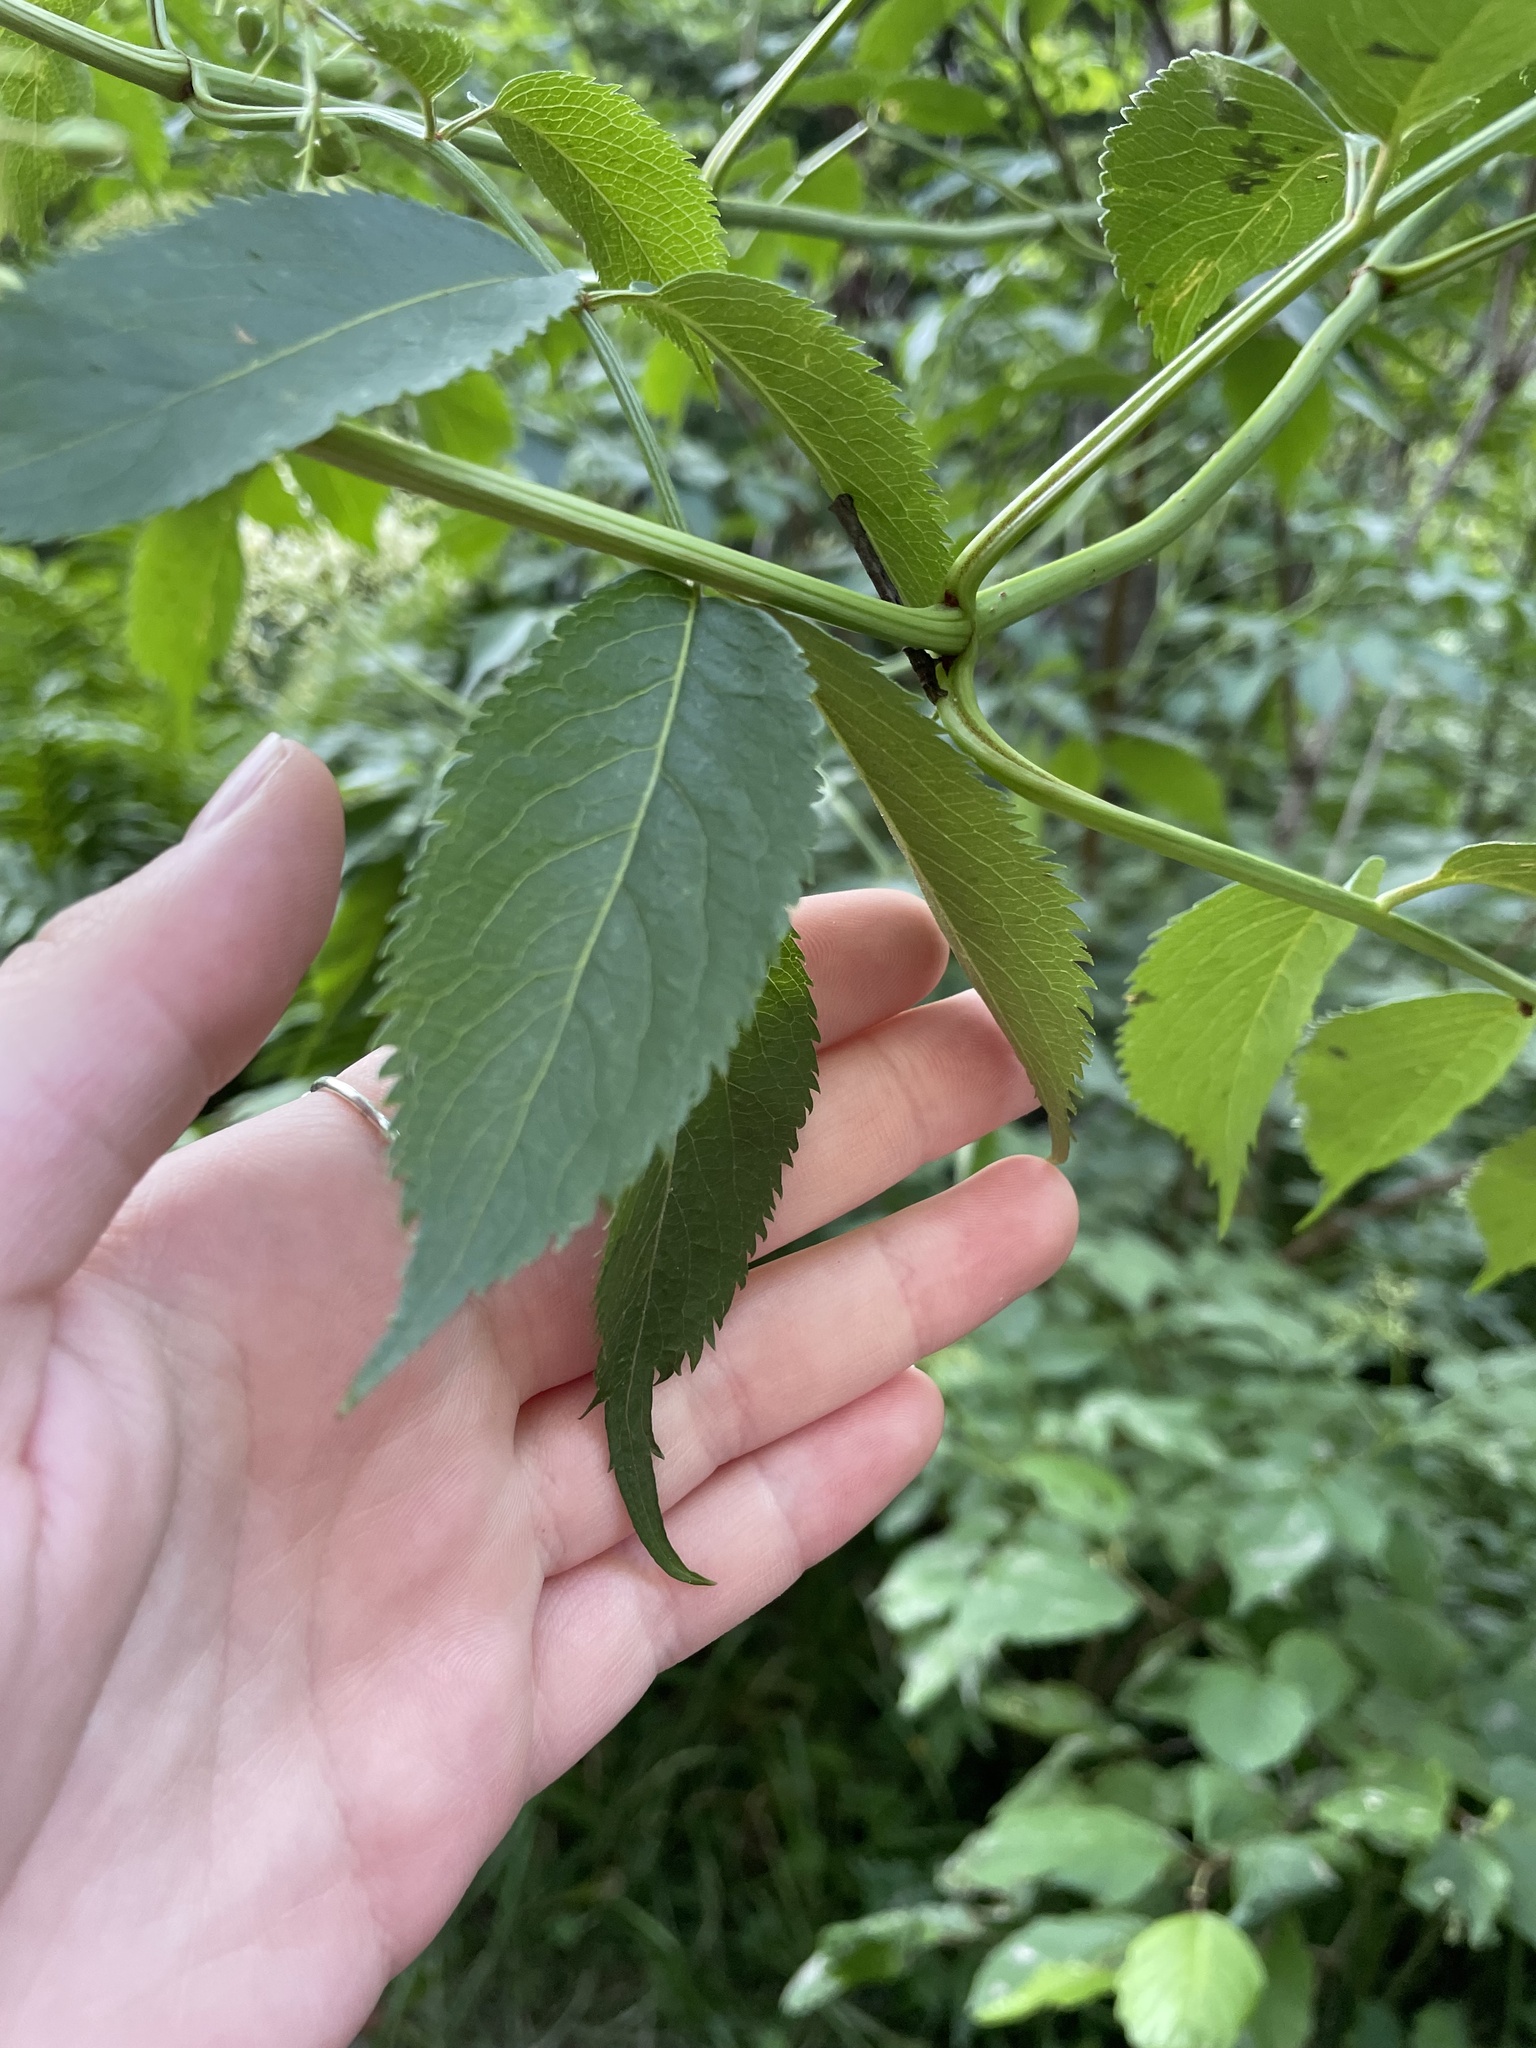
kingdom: Plantae
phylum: Tracheophyta
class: Magnoliopsida
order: Dipsacales
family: Viburnaceae
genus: Sambucus
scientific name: Sambucus canadensis
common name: American elder
